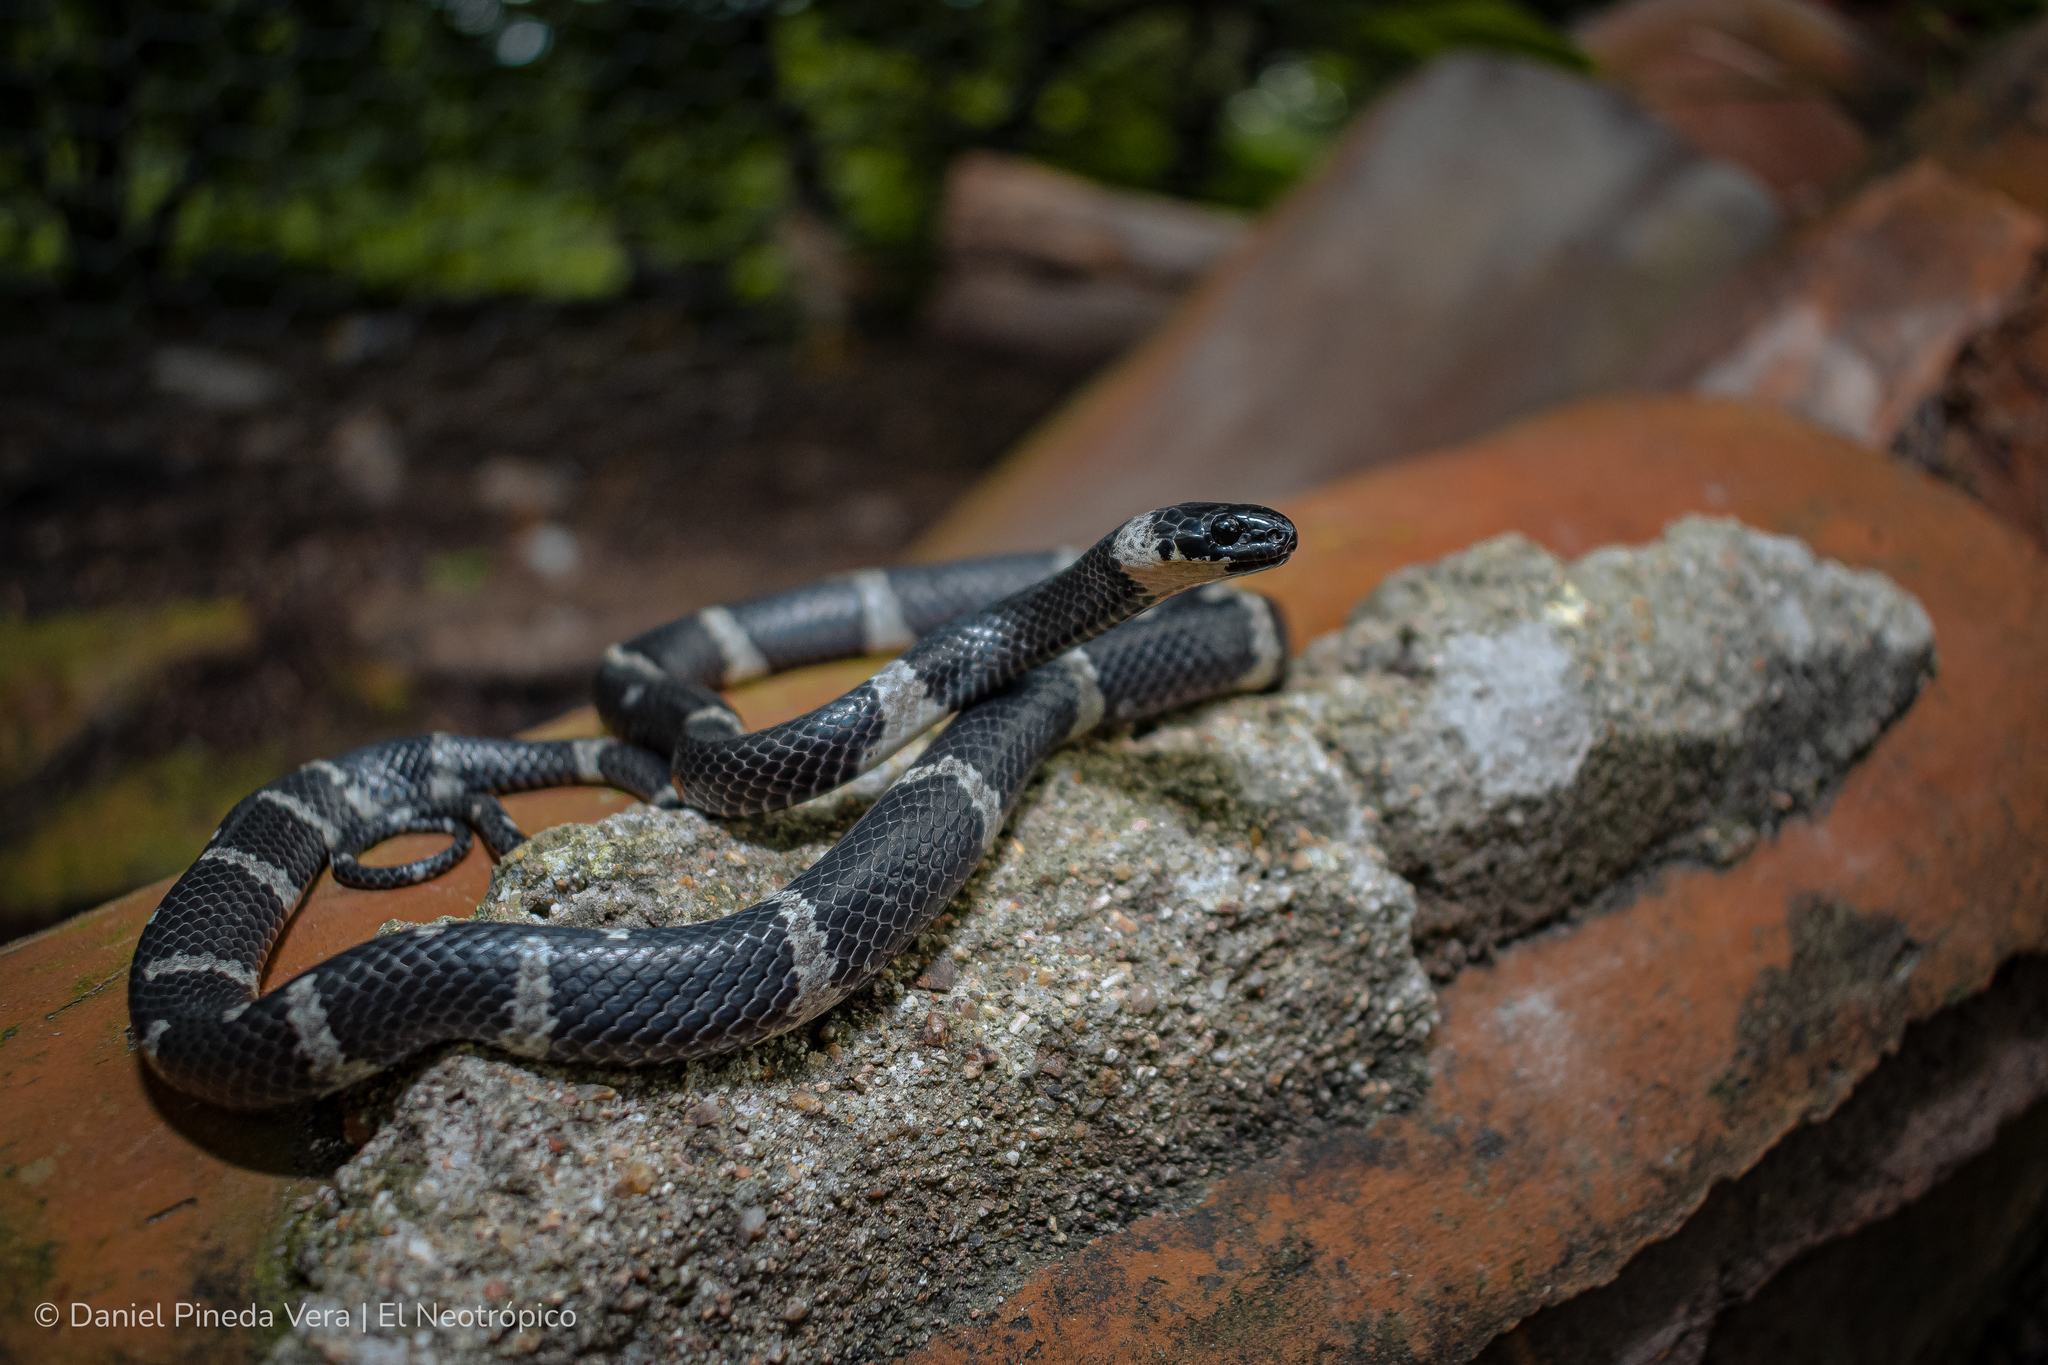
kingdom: Animalia
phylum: Chordata
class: Squamata
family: Colubridae
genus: Tropidodipsas
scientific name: Tropidodipsas fasciata
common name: Banded snail sucker
